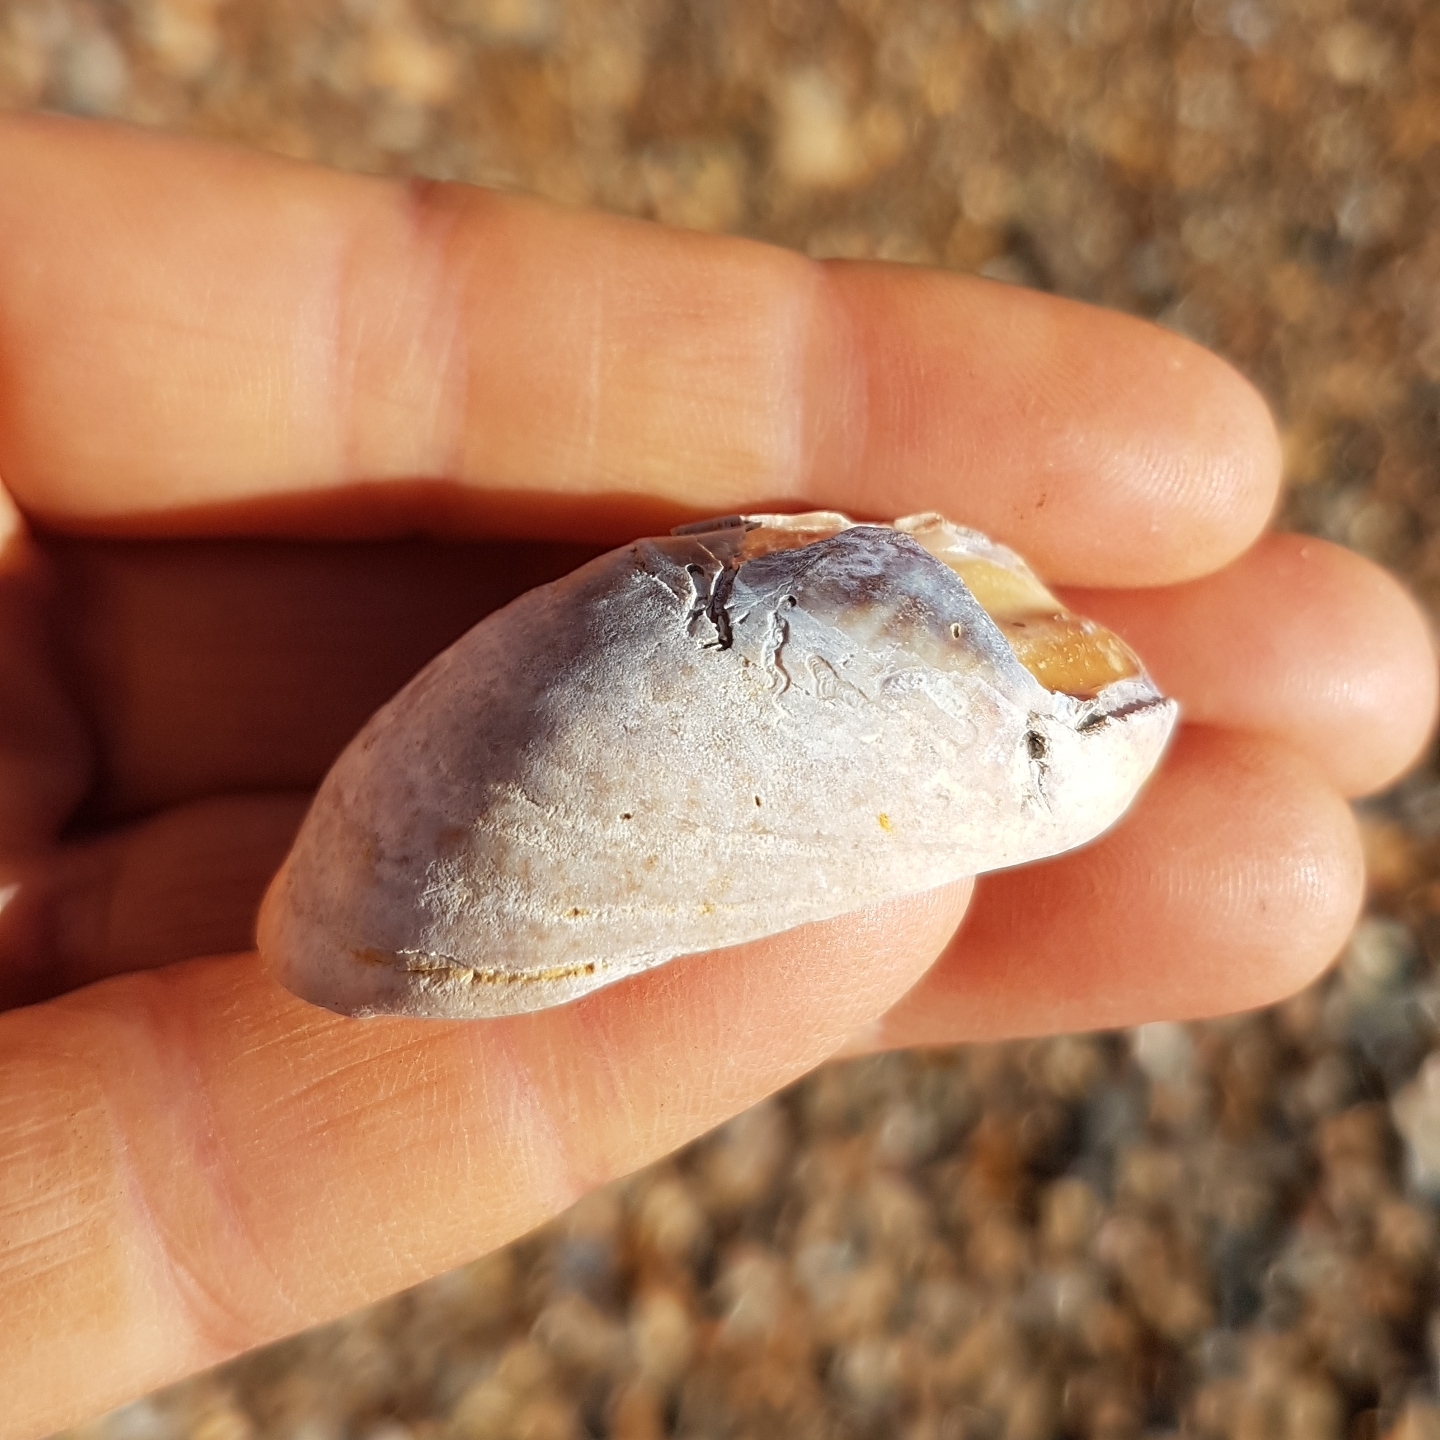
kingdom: Animalia
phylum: Mollusca
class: Gastropoda
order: Littorinimorpha
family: Calyptraeidae
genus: Crepidula
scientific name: Crepidula fornicata
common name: Slipper limpet
